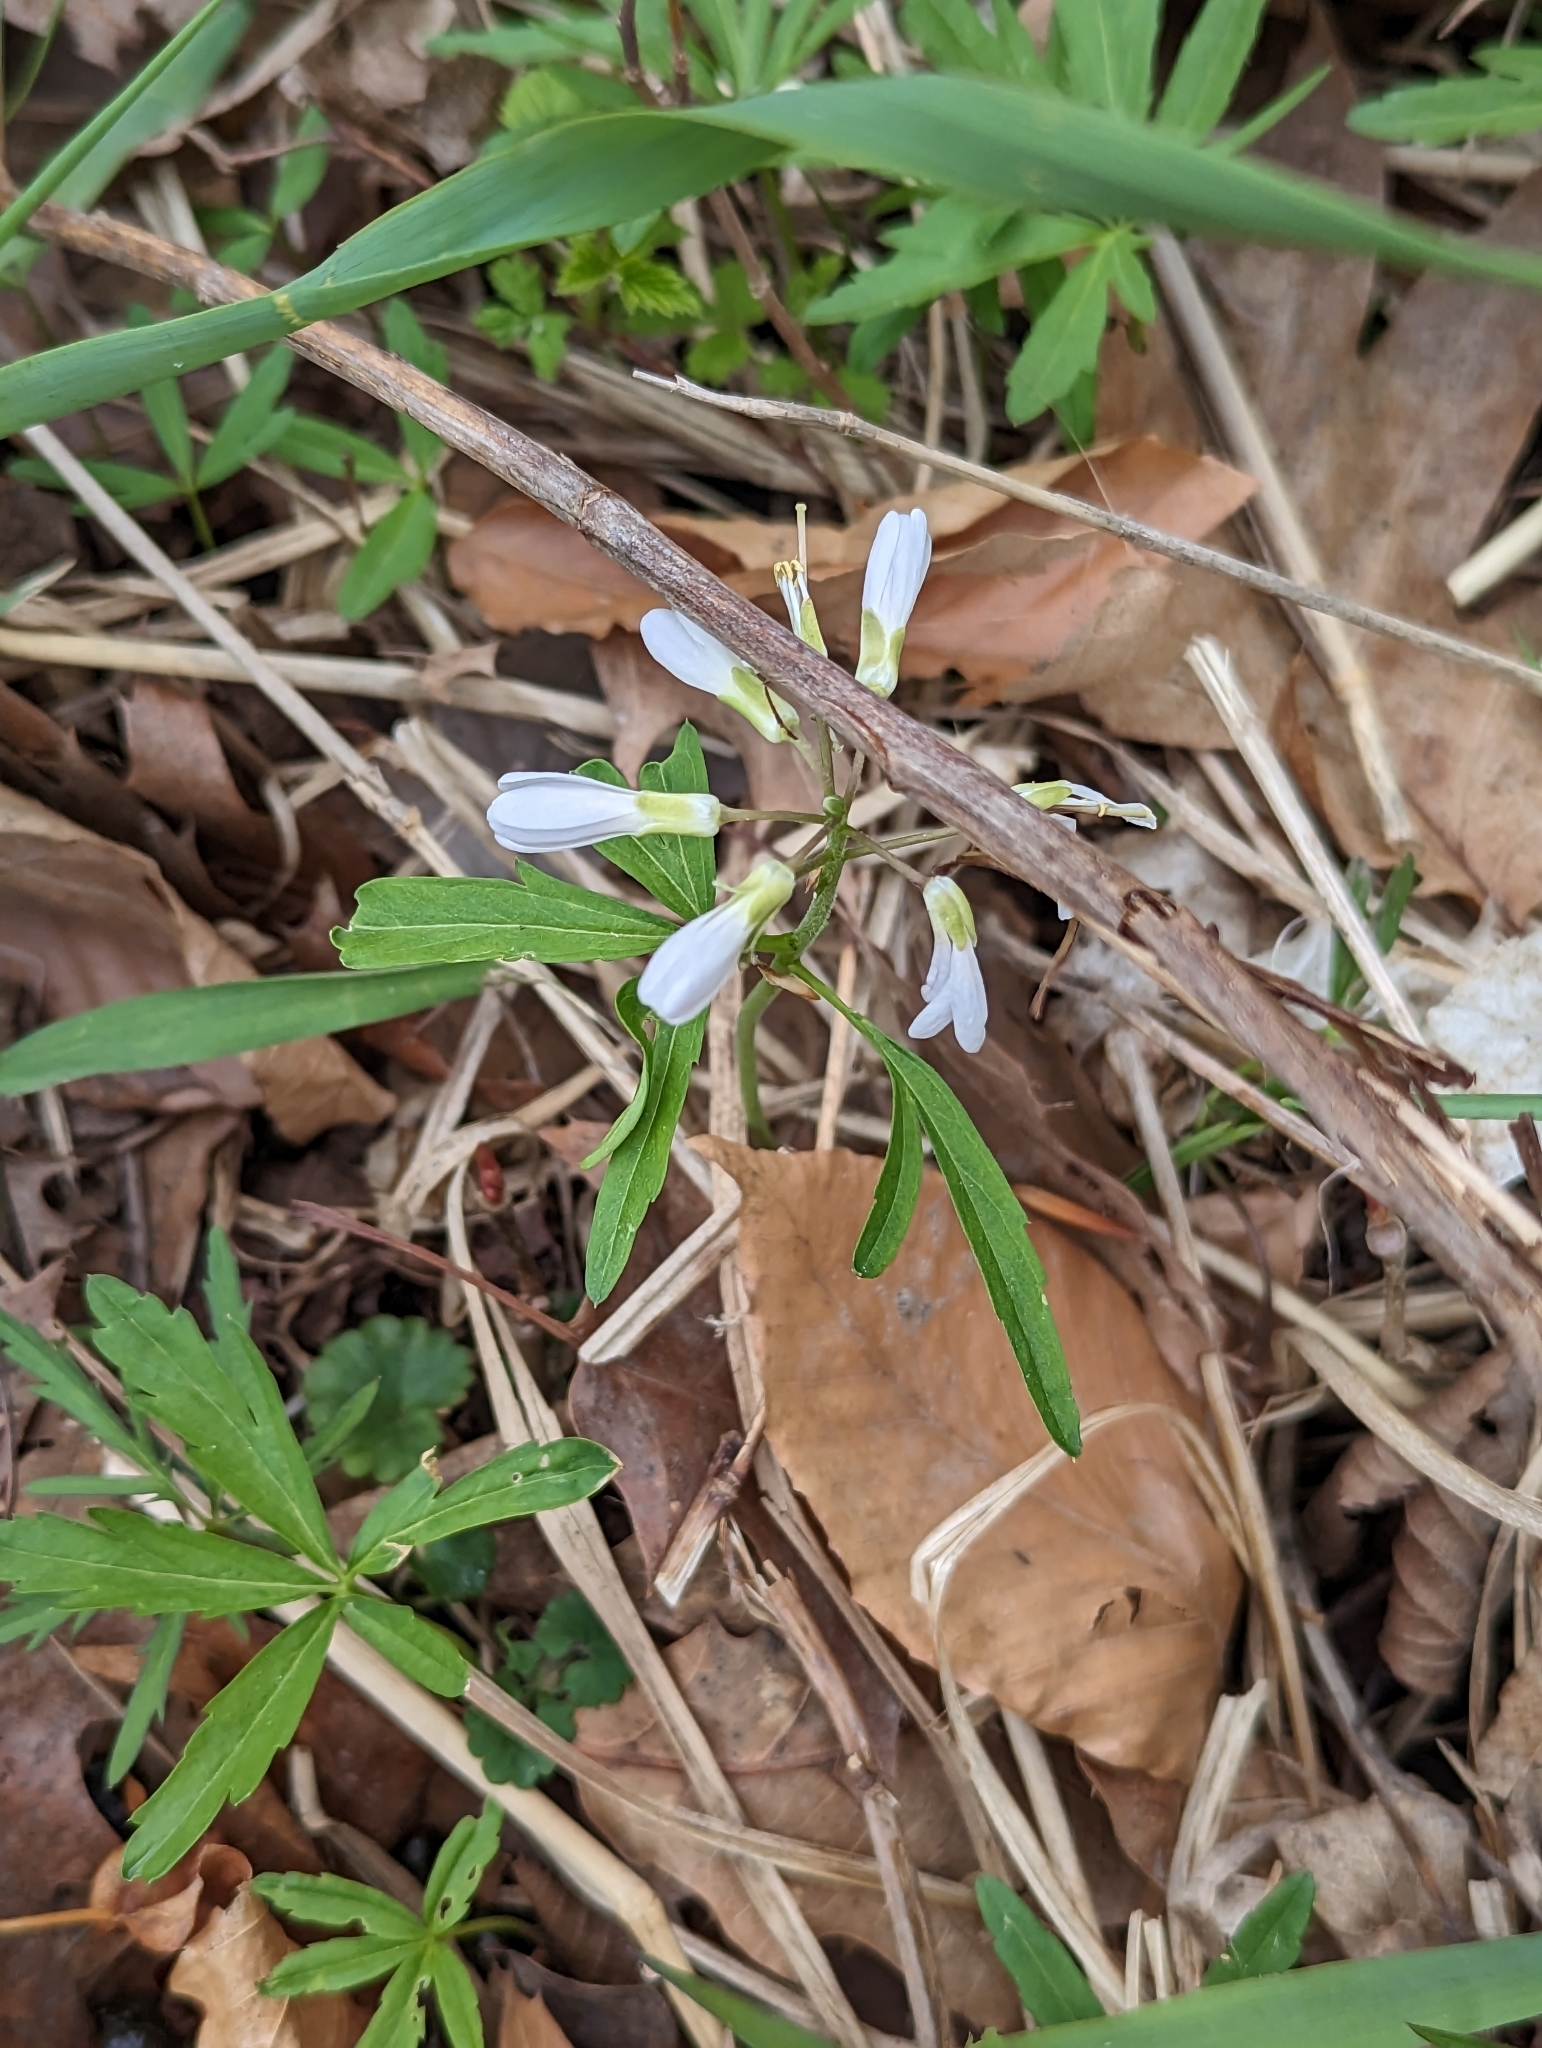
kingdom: Plantae
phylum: Tracheophyta
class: Magnoliopsida
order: Brassicales
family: Brassicaceae
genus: Cardamine
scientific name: Cardamine concatenata
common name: Cut-leaf toothcup
